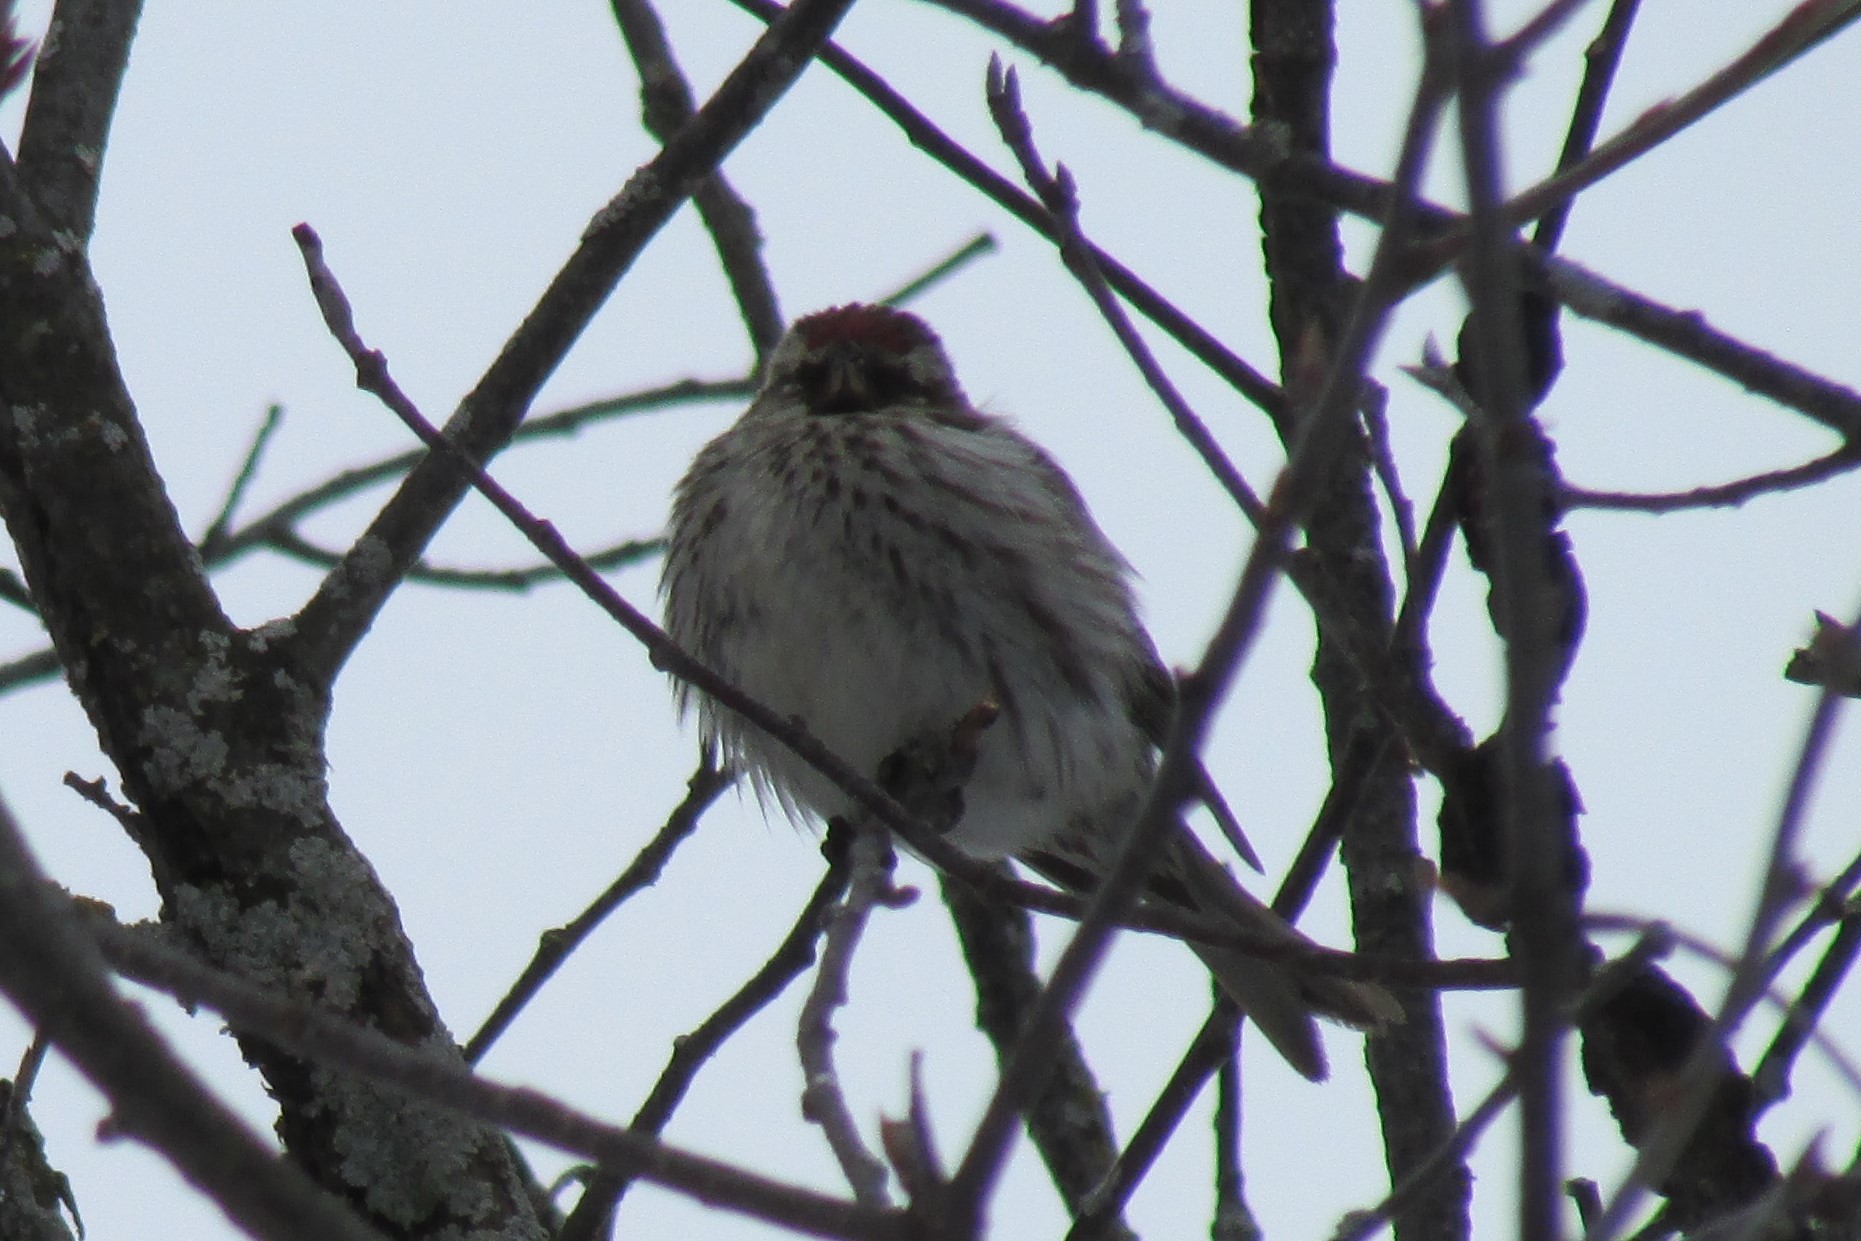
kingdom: Animalia
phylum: Chordata
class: Aves
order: Passeriformes
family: Fringillidae
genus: Acanthis
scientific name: Acanthis flammea
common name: Common redpoll
